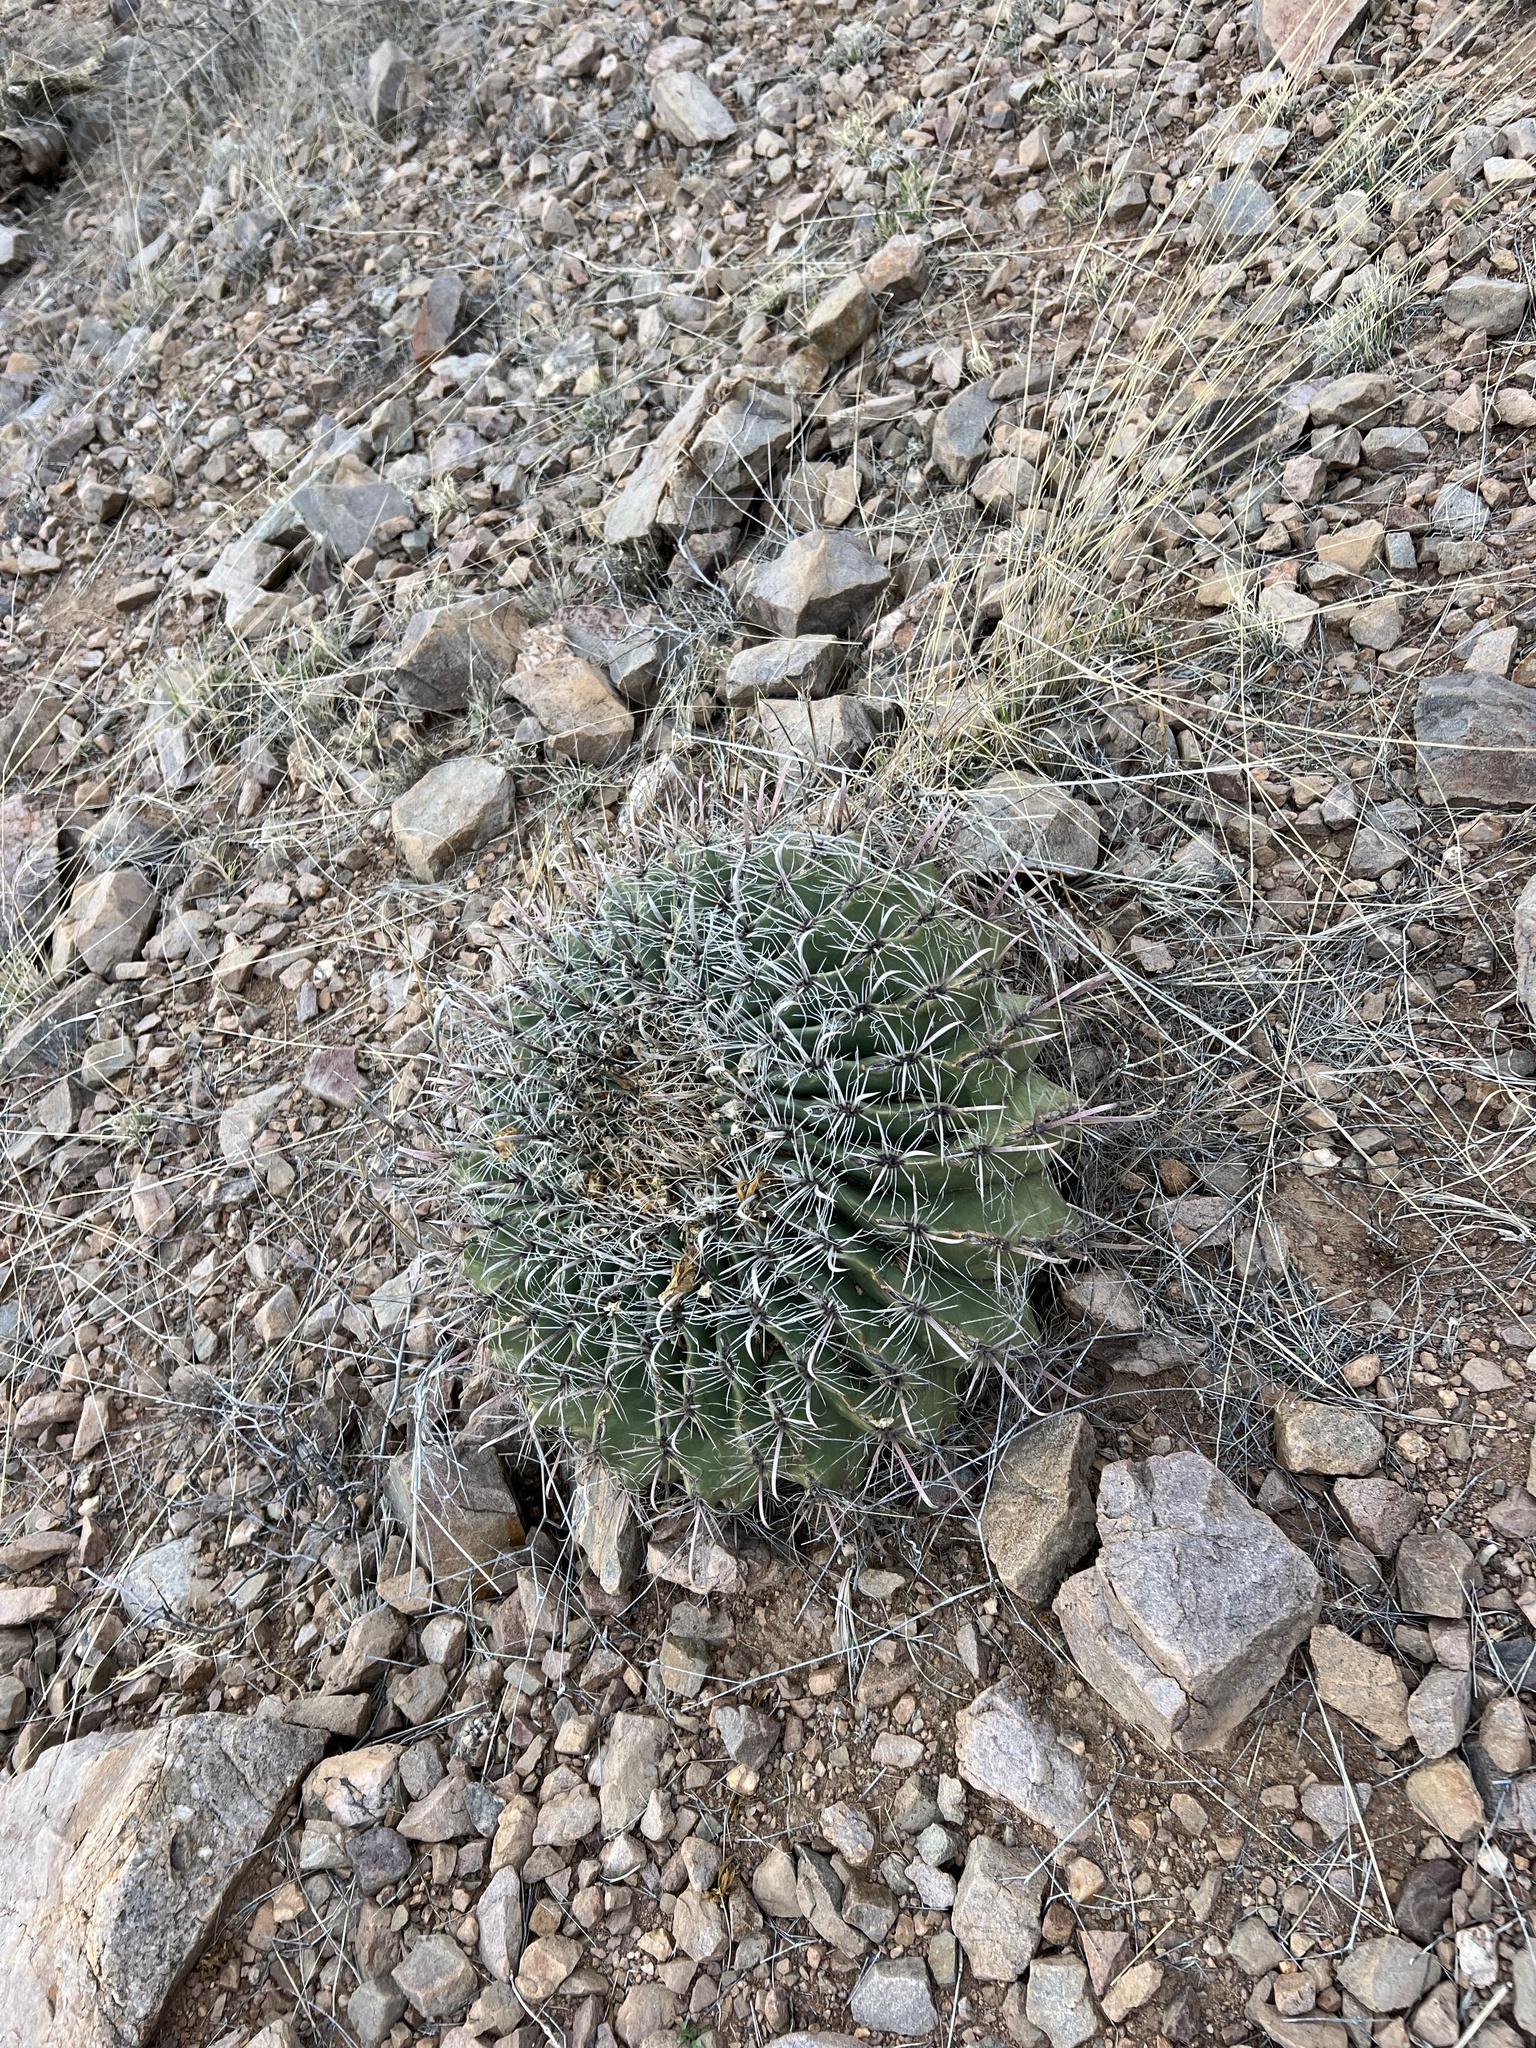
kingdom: Plantae
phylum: Tracheophyta
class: Magnoliopsida
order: Caryophyllales
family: Cactaceae
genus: Ferocactus
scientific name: Ferocactus wislizeni
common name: Candy barrel cactus
